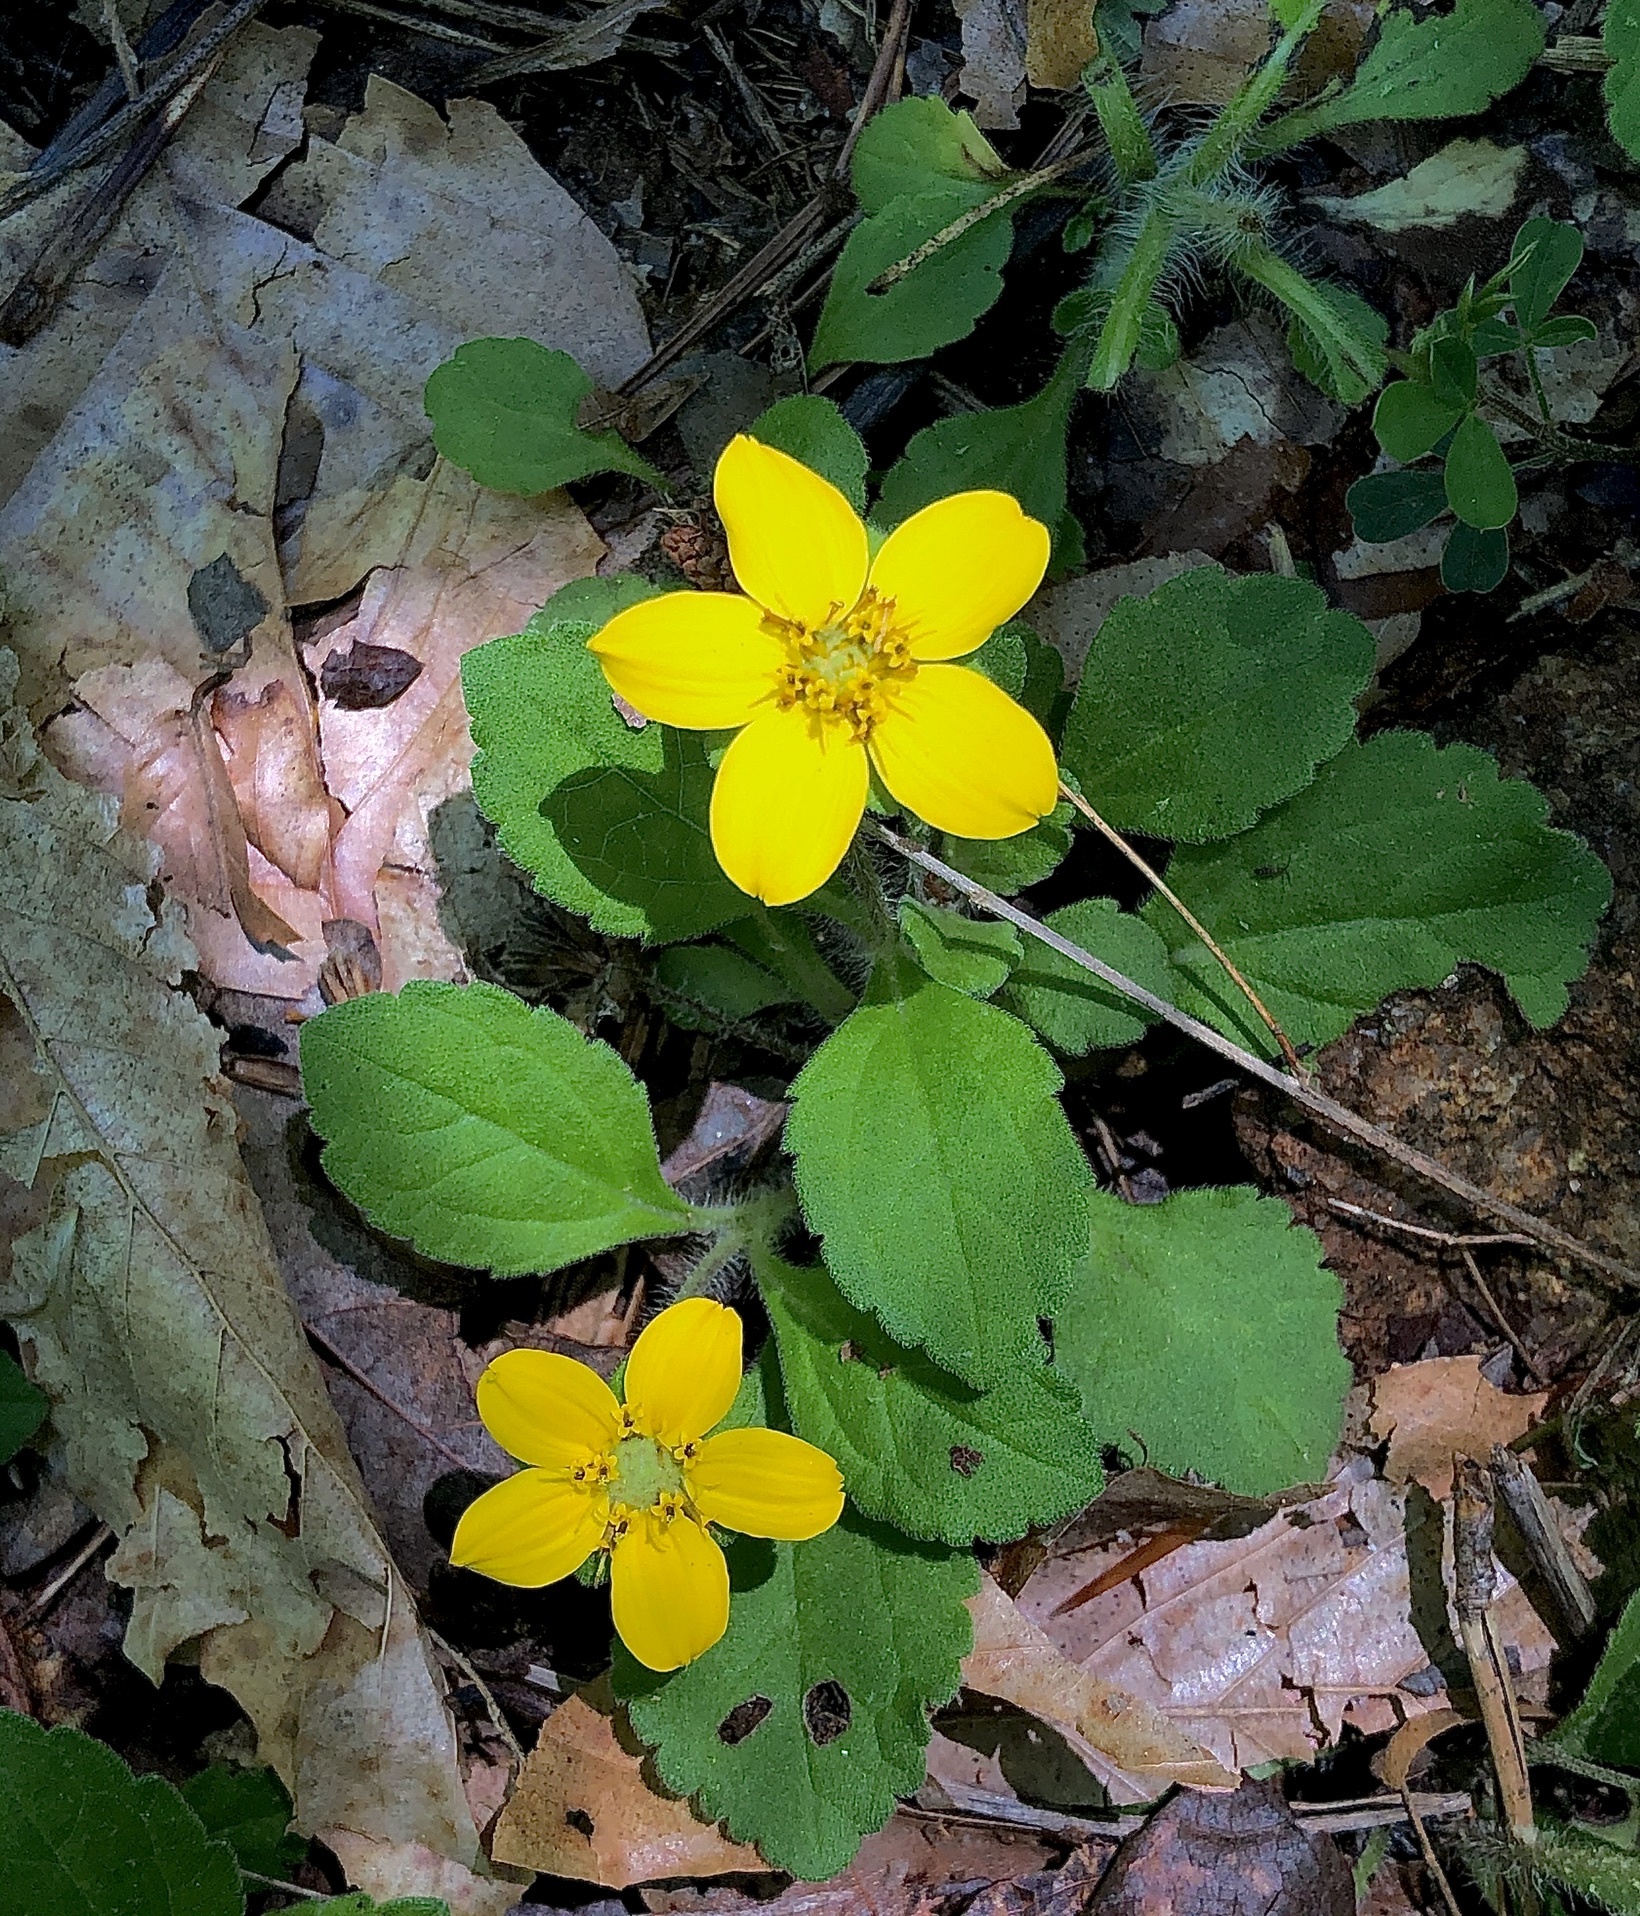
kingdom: Plantae
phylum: Tracheophyta
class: Magnoliopsida
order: Asterales
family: Asteraceae
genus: Chrysogonum
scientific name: Chrysogonum virginianum
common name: Golden-knee
